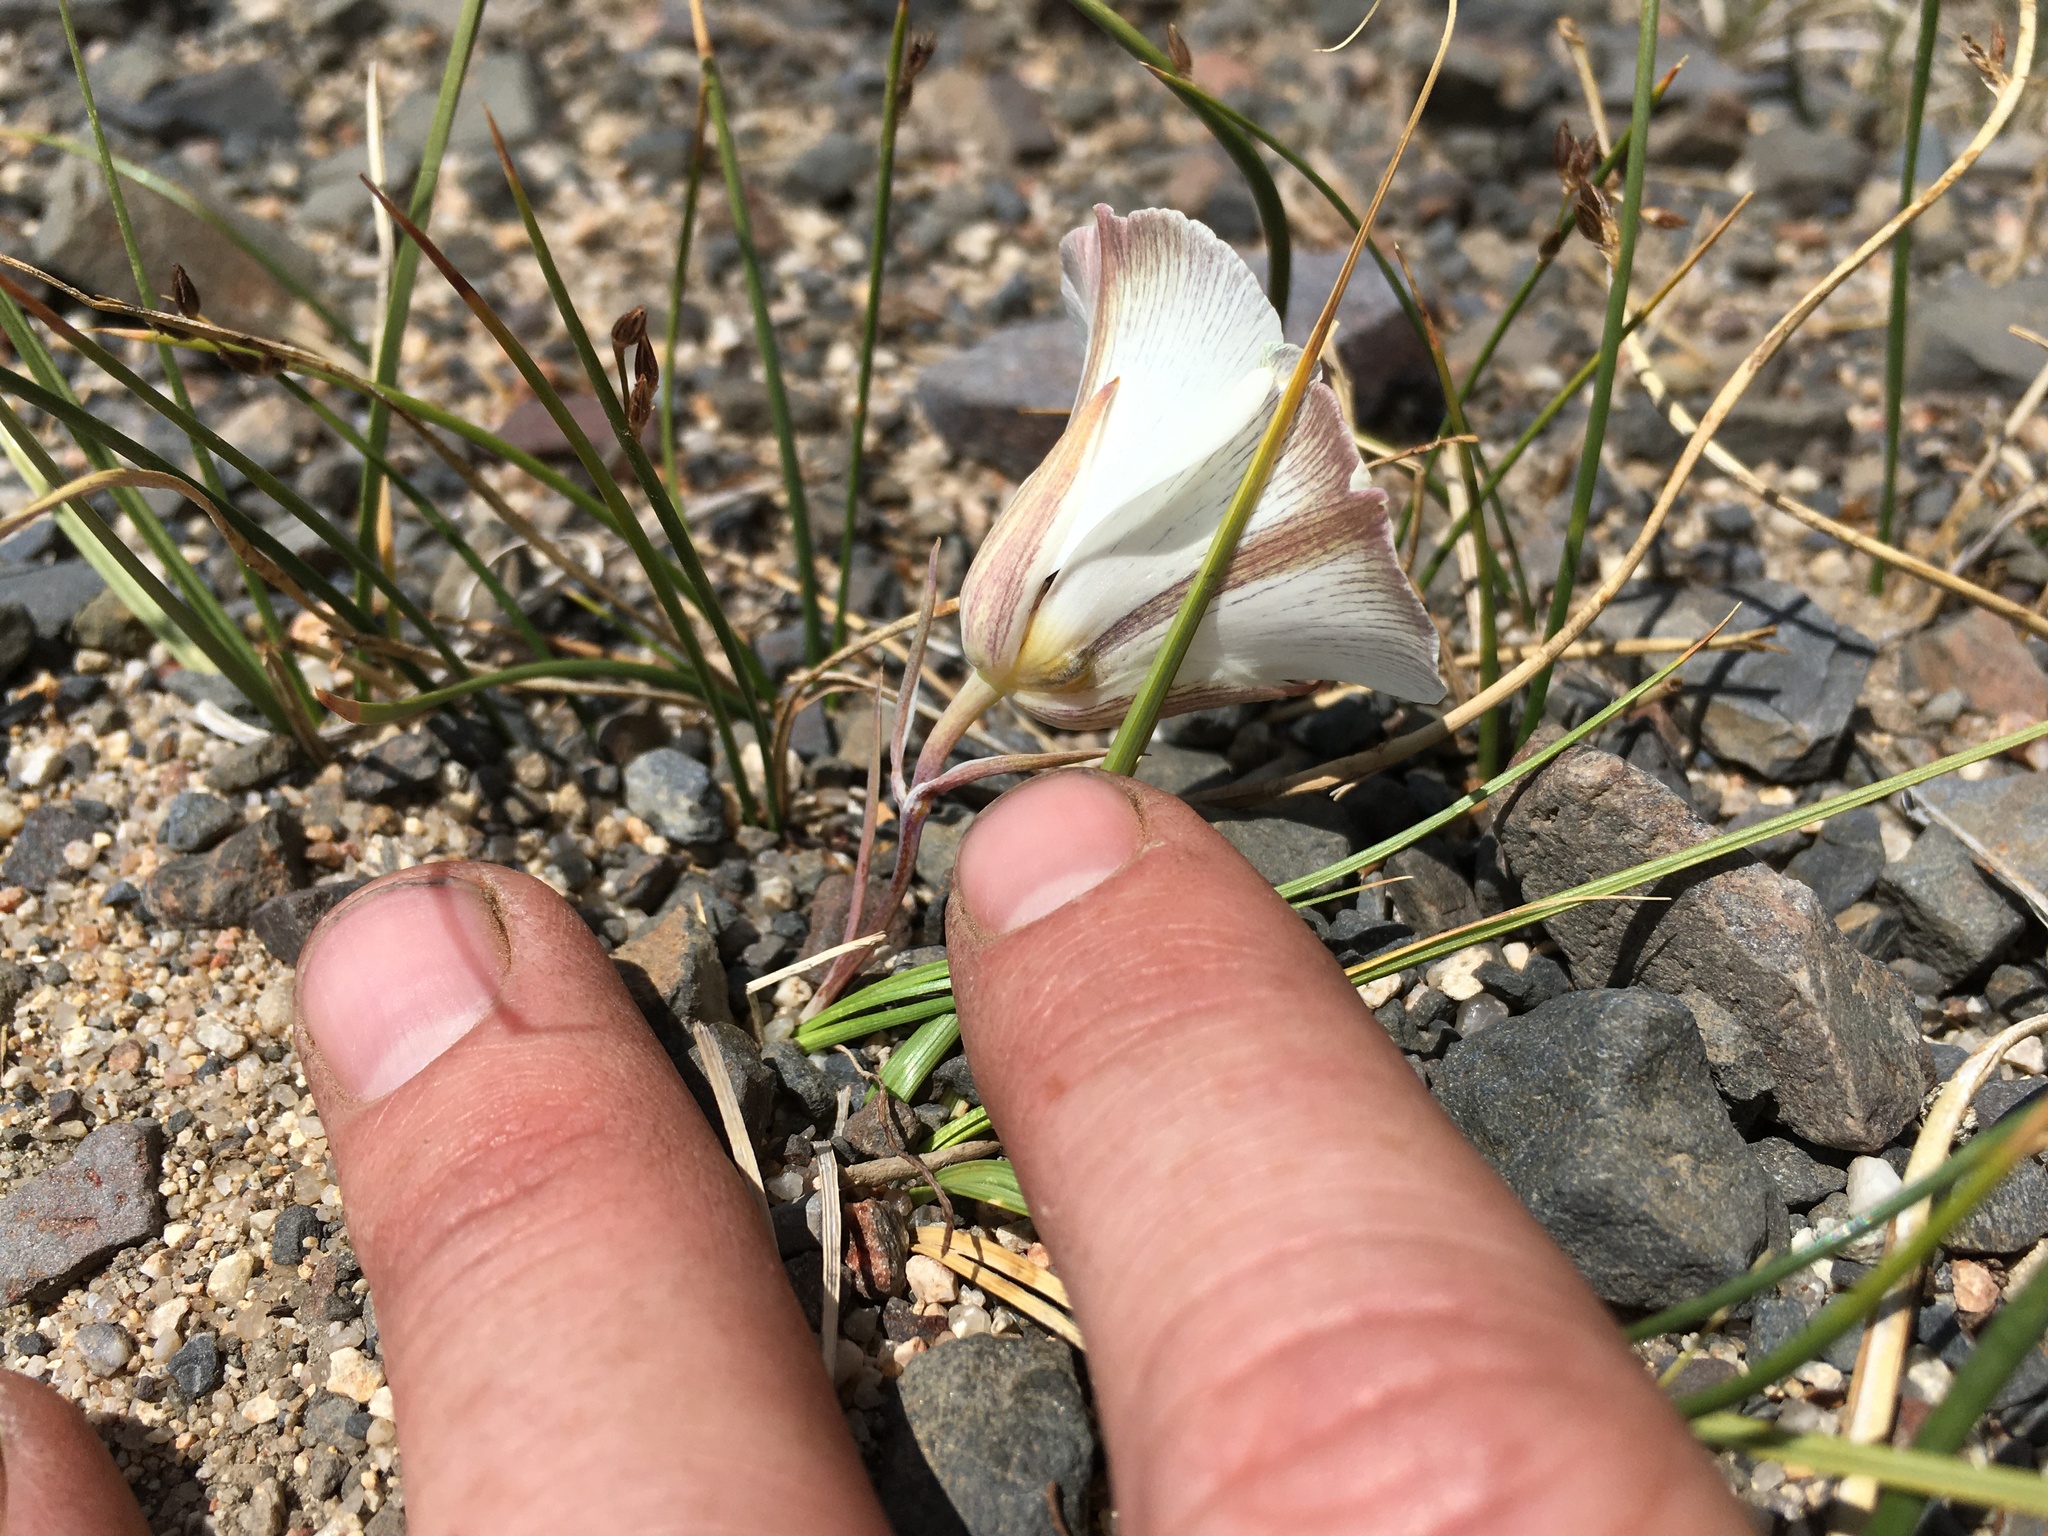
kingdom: Plantae
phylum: Tracheophyta
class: Liliopsida
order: Liliales
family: Liliaceae
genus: Calochortus
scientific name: Calochortus bruneaunis
